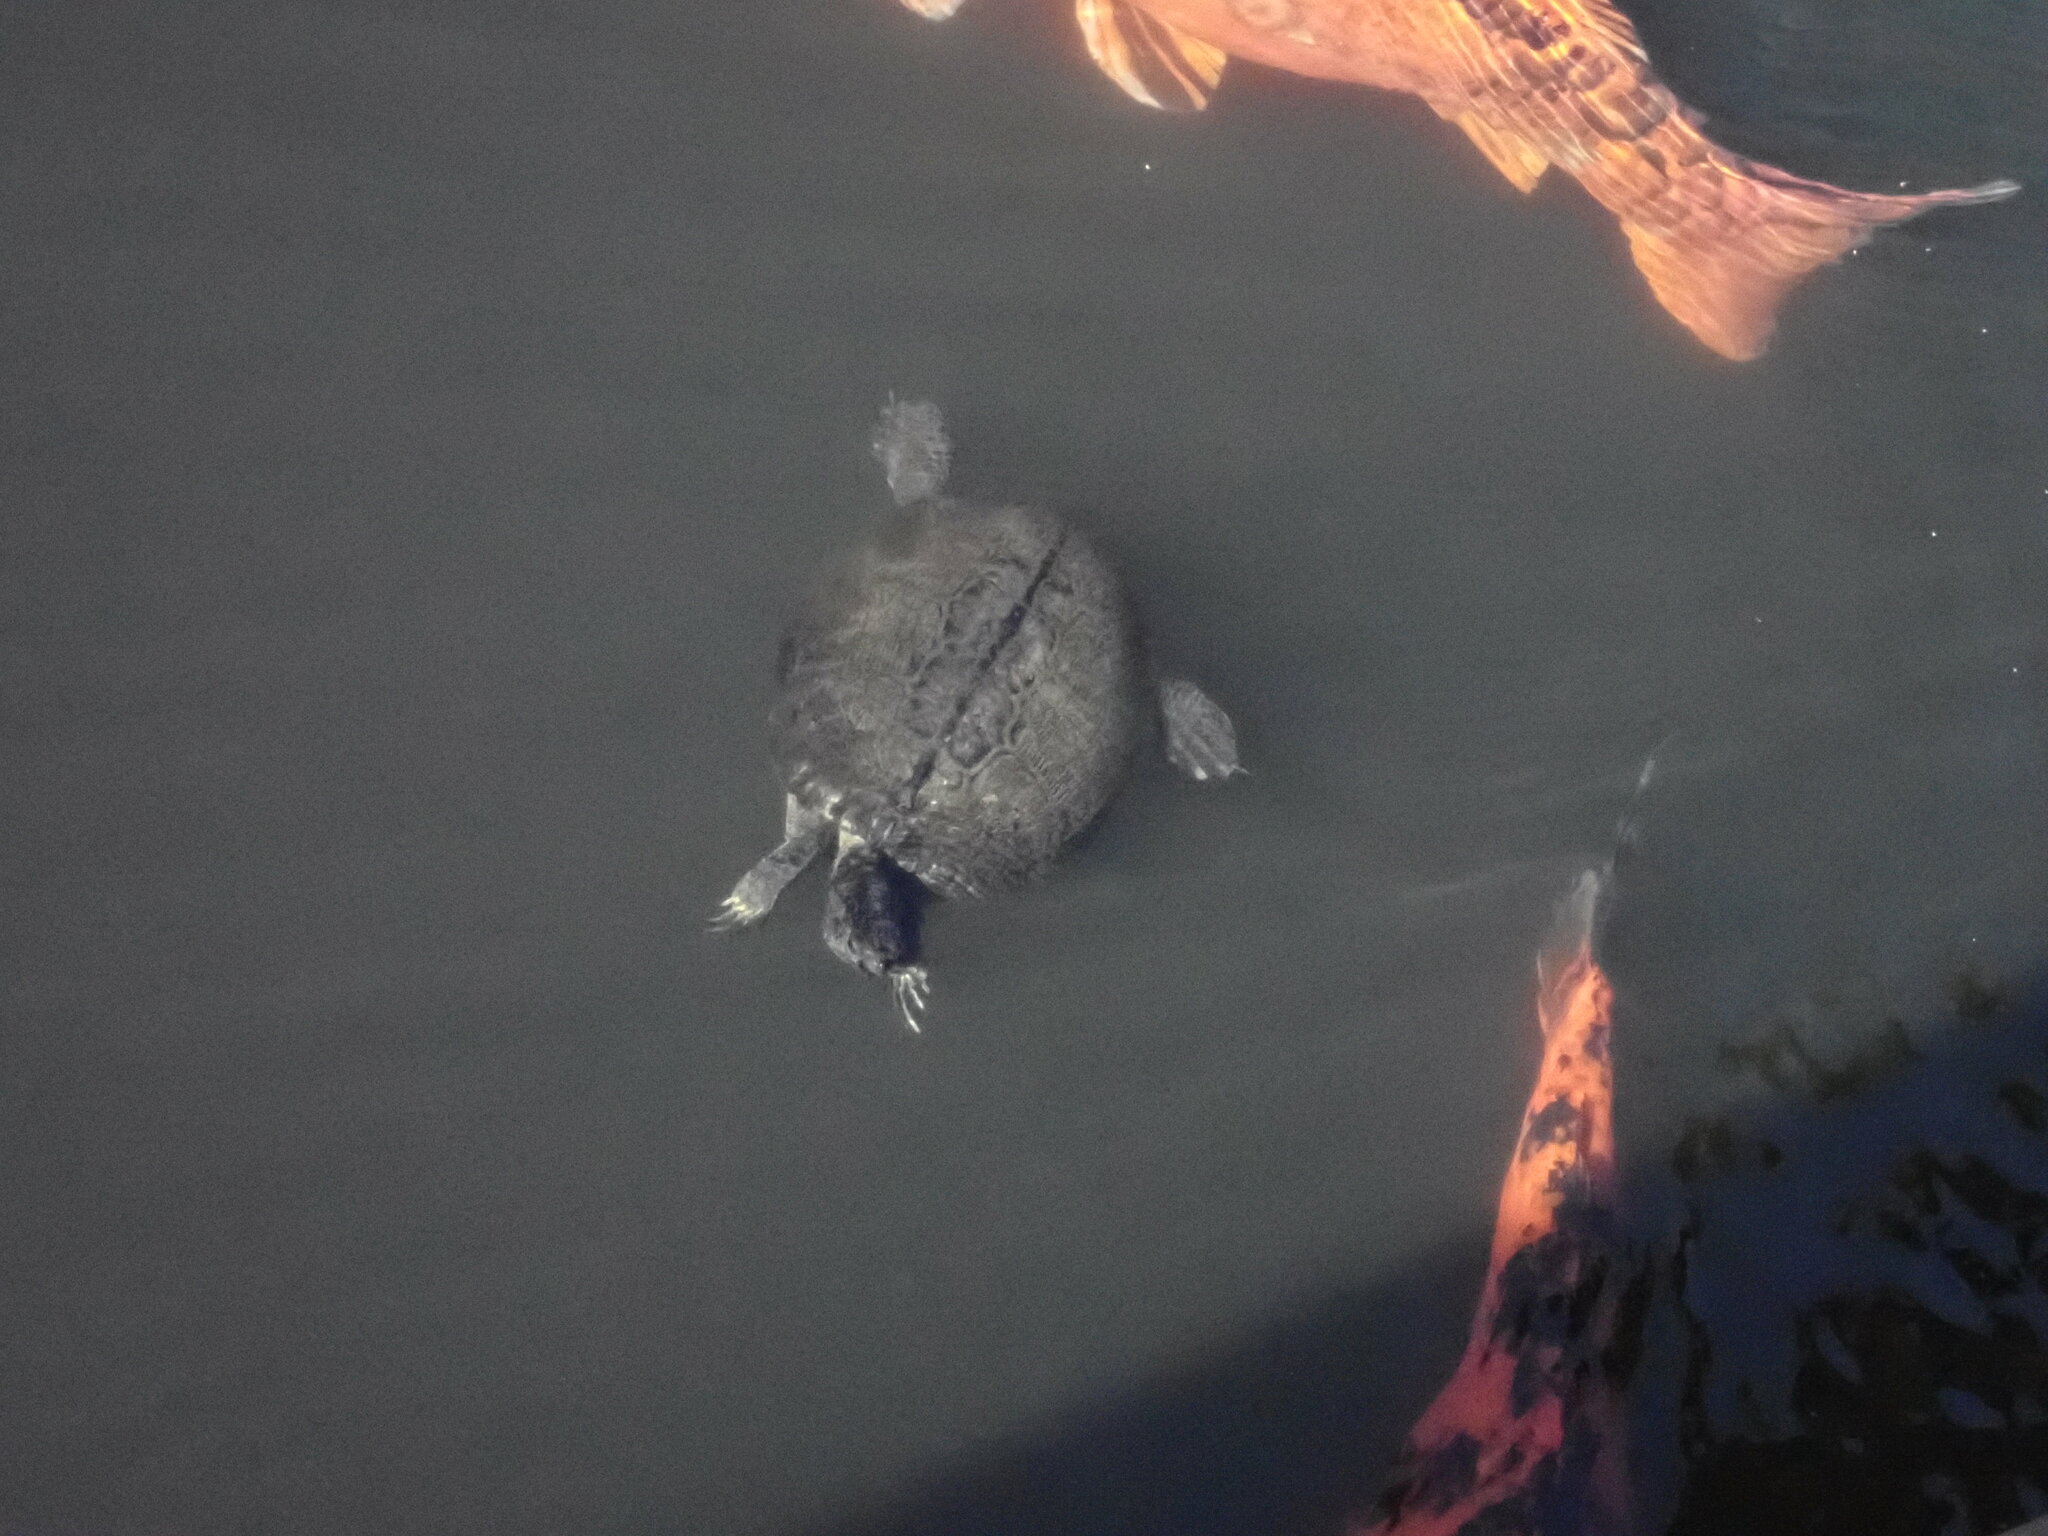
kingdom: Animalia
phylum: Chordata
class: Testudines
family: Emydidae
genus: Trachemys
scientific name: Trachemys scripta
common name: Slider
